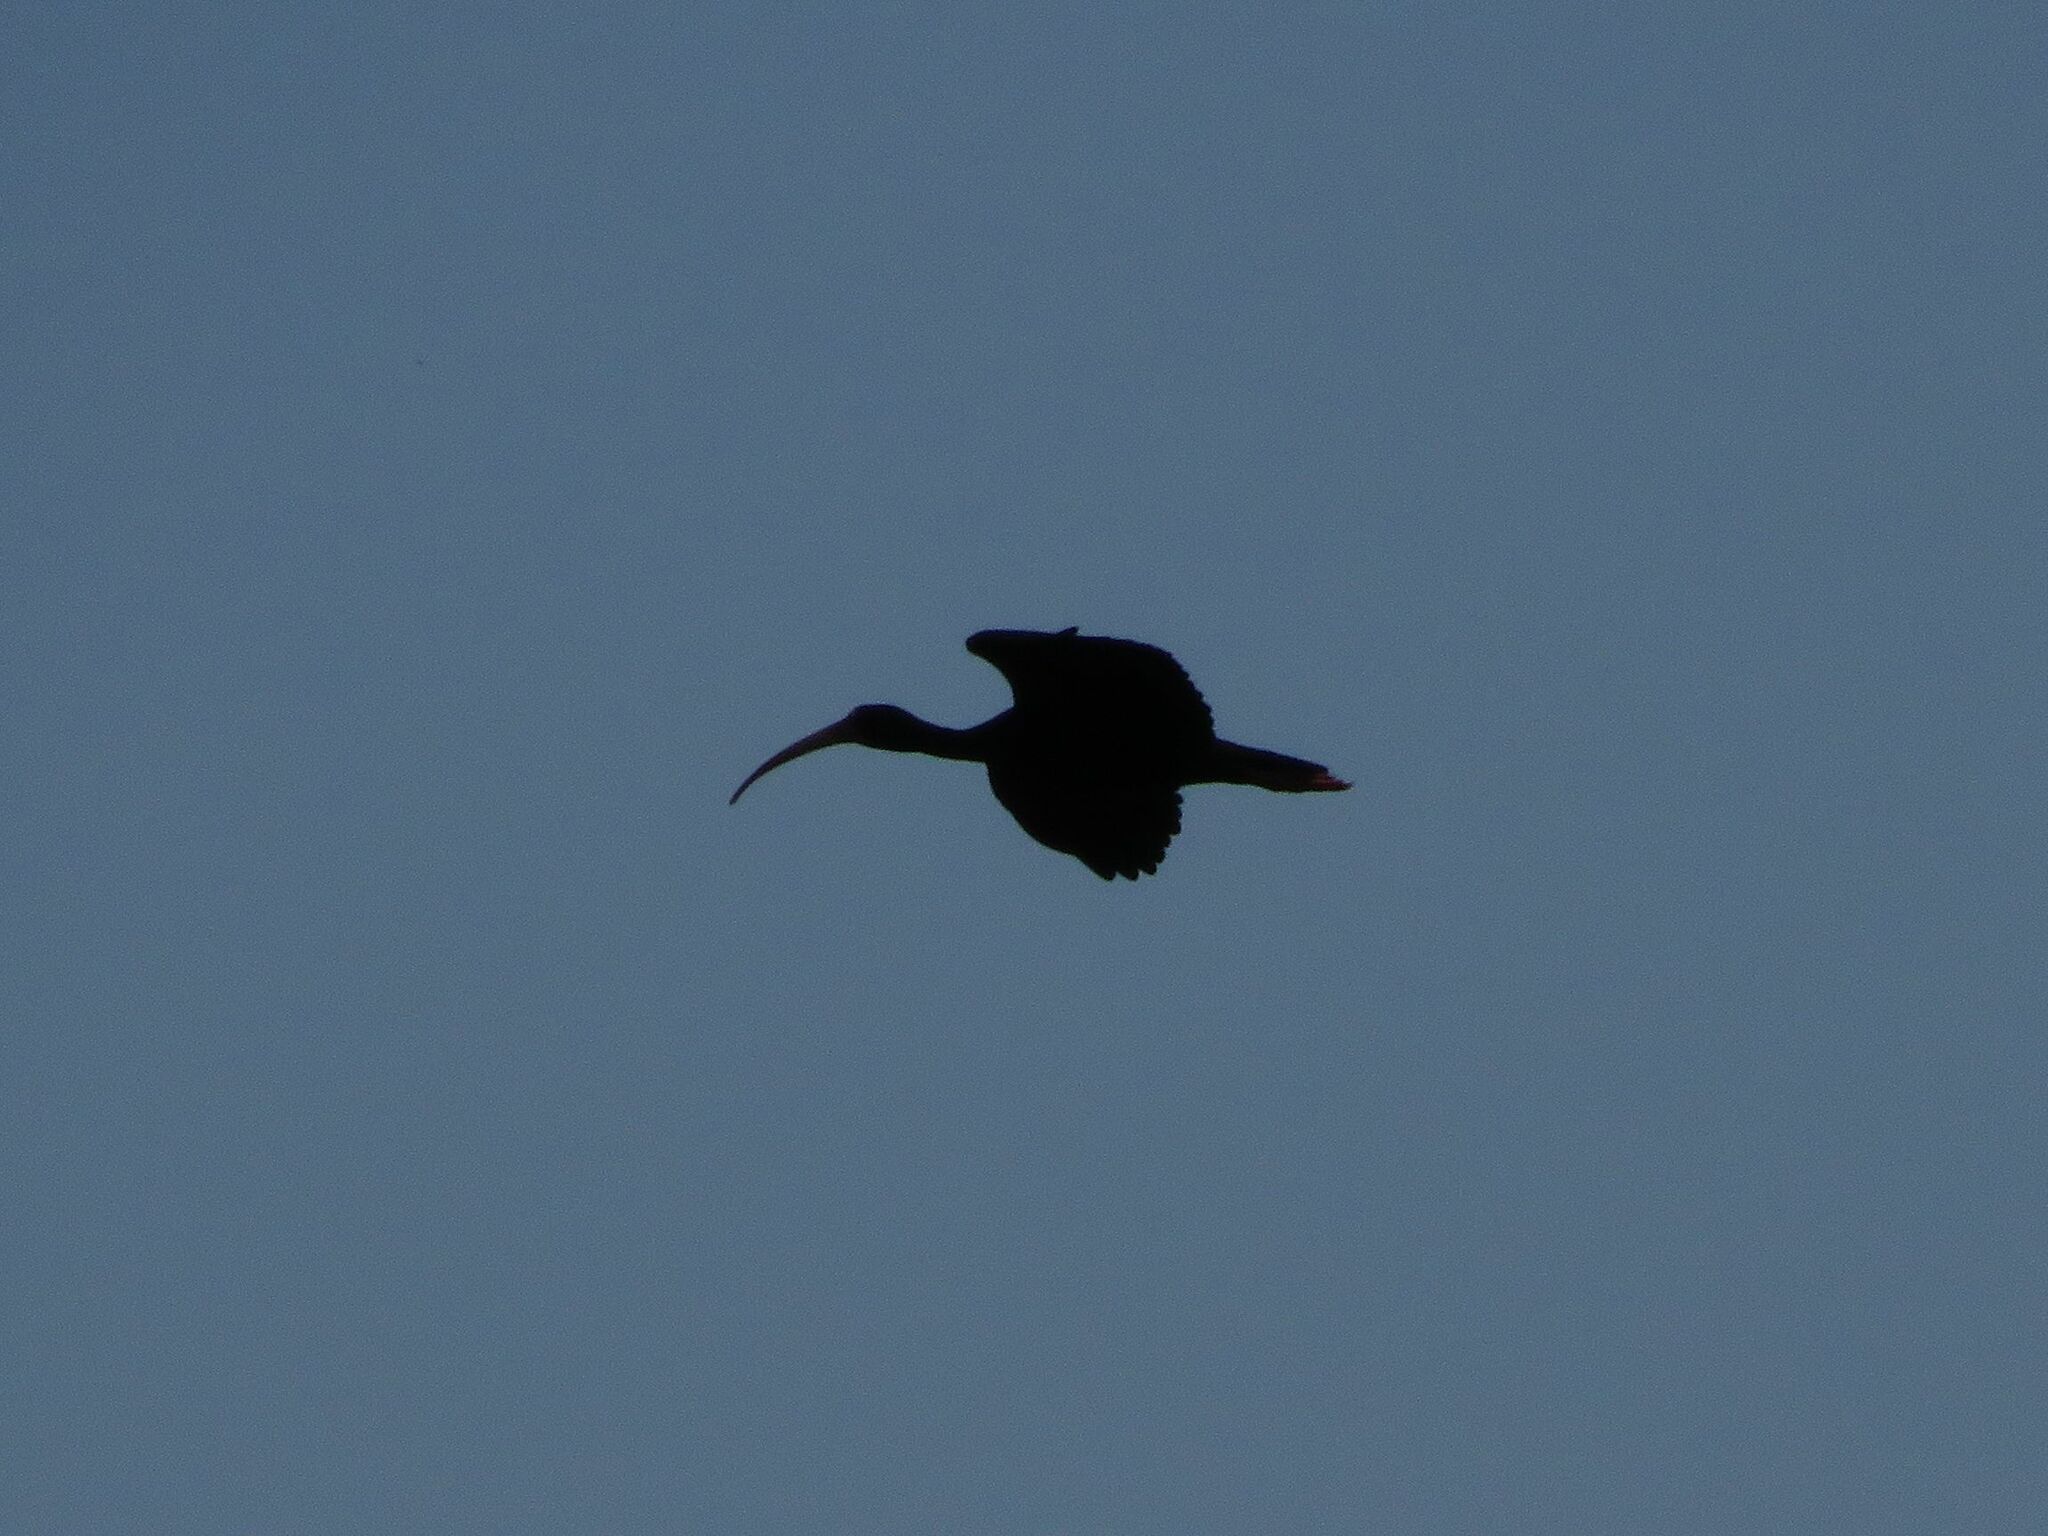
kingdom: Animalia
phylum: Chordata
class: Aves
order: Pelecaniformes
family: Threskiornithidae
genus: Phimosus
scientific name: Phimosus infuscatus
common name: Bare-faced ibis
